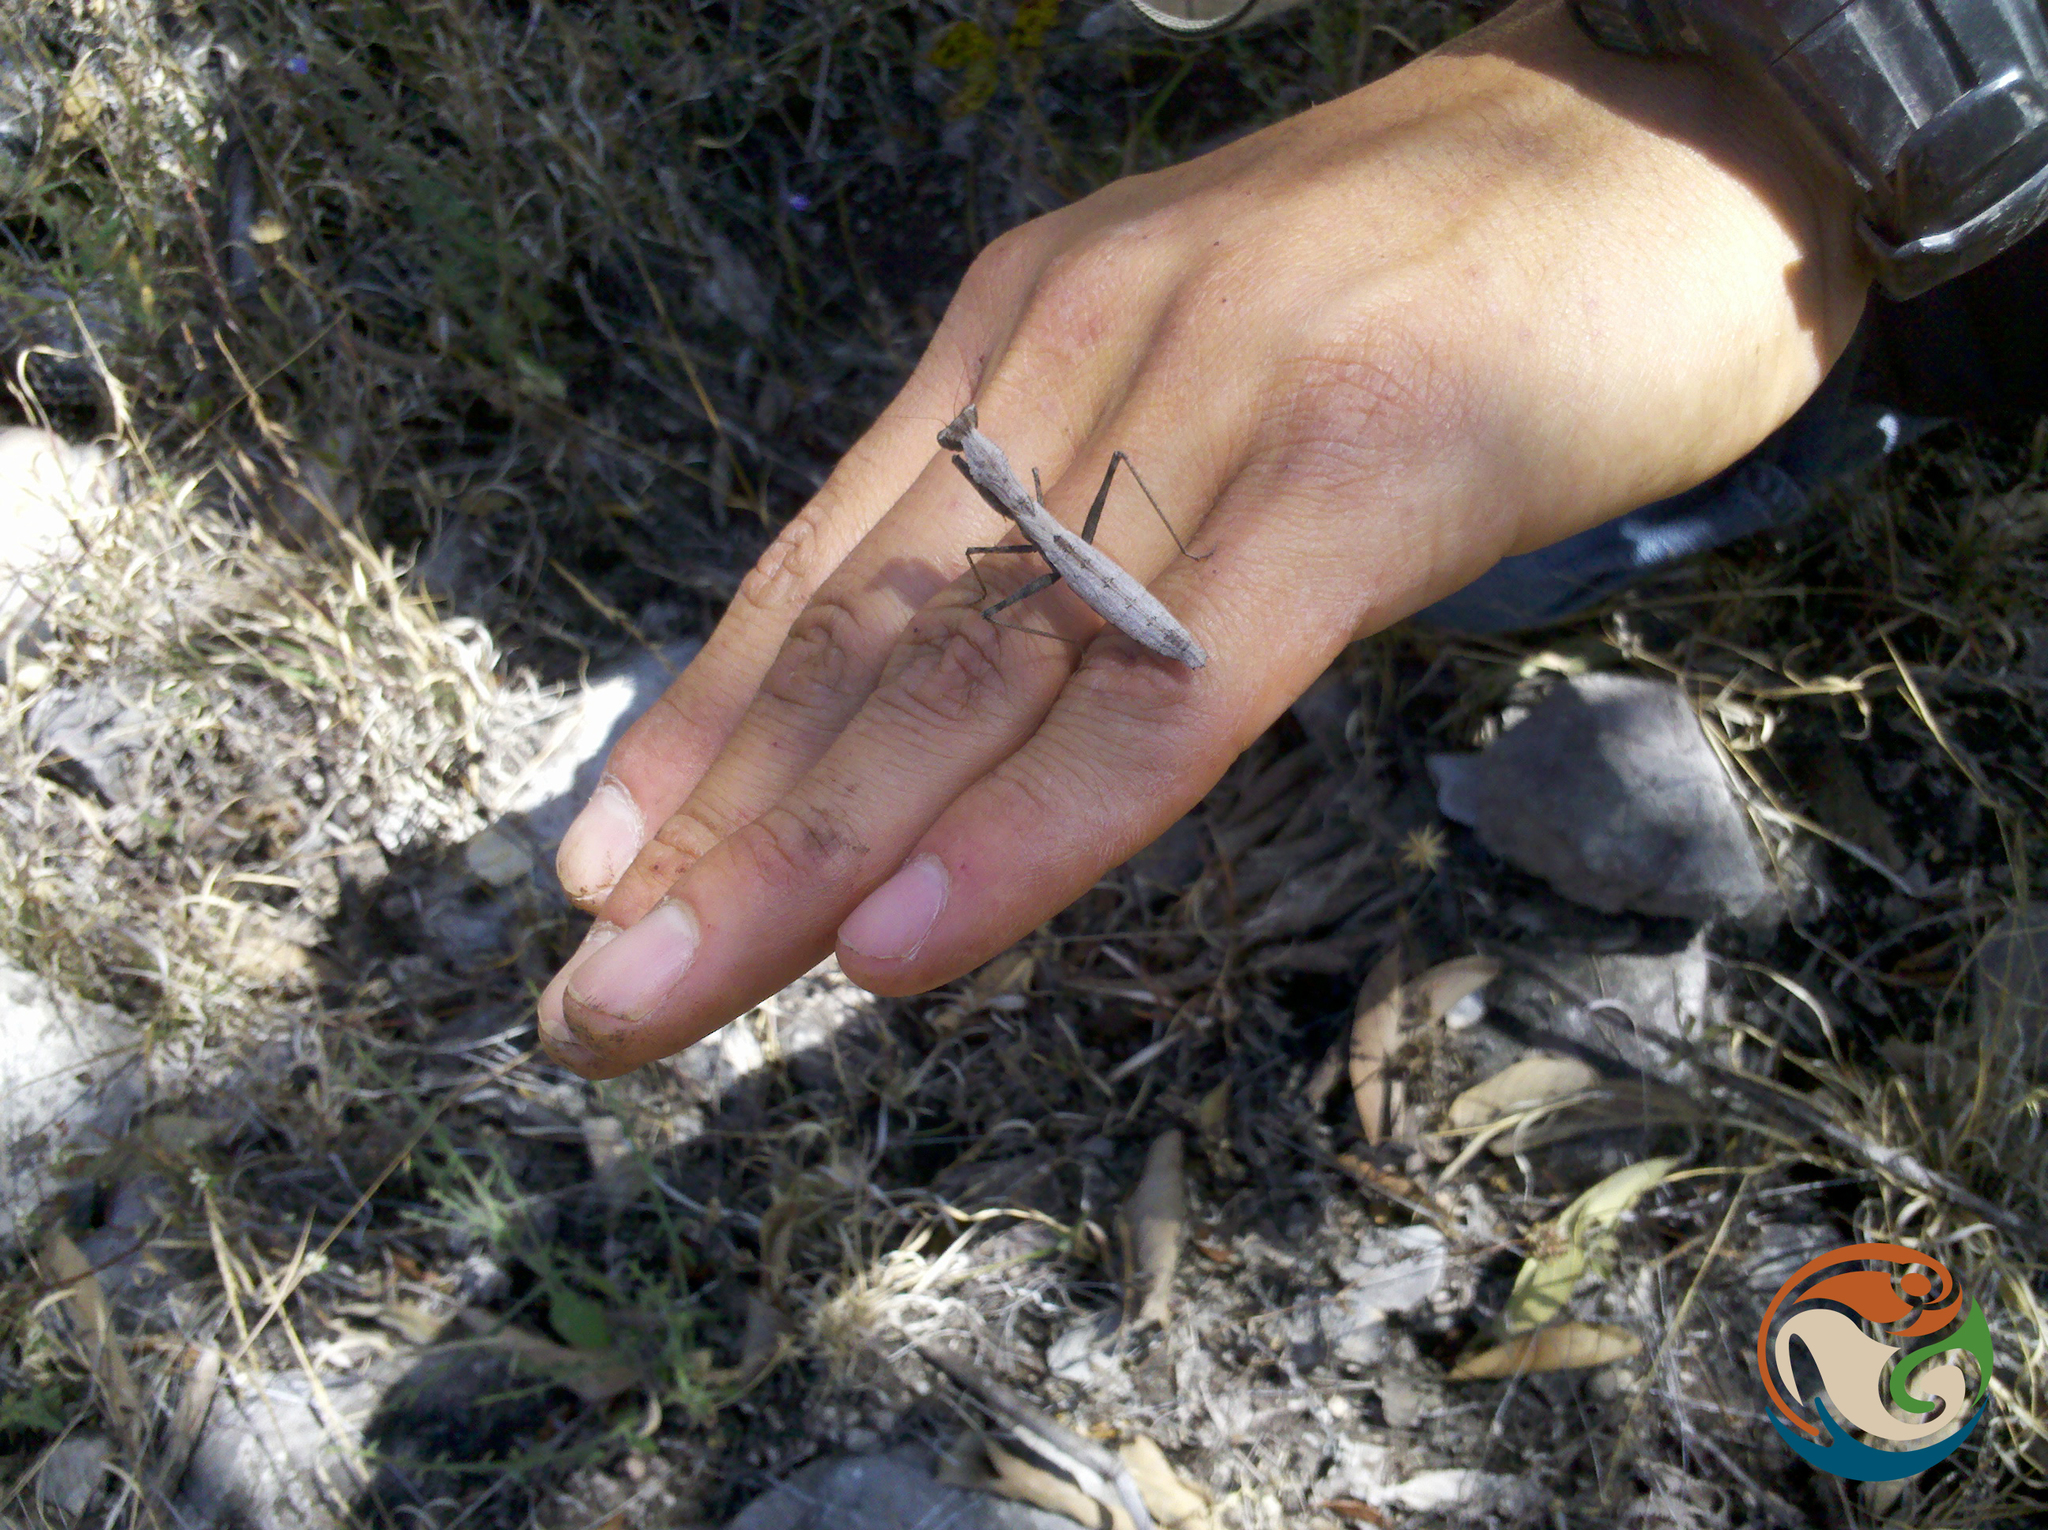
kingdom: Animalia
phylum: Arthropoda
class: Insecta
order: Mantodea
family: Amelidae
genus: Yersinia
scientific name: Yersinia mexicana
